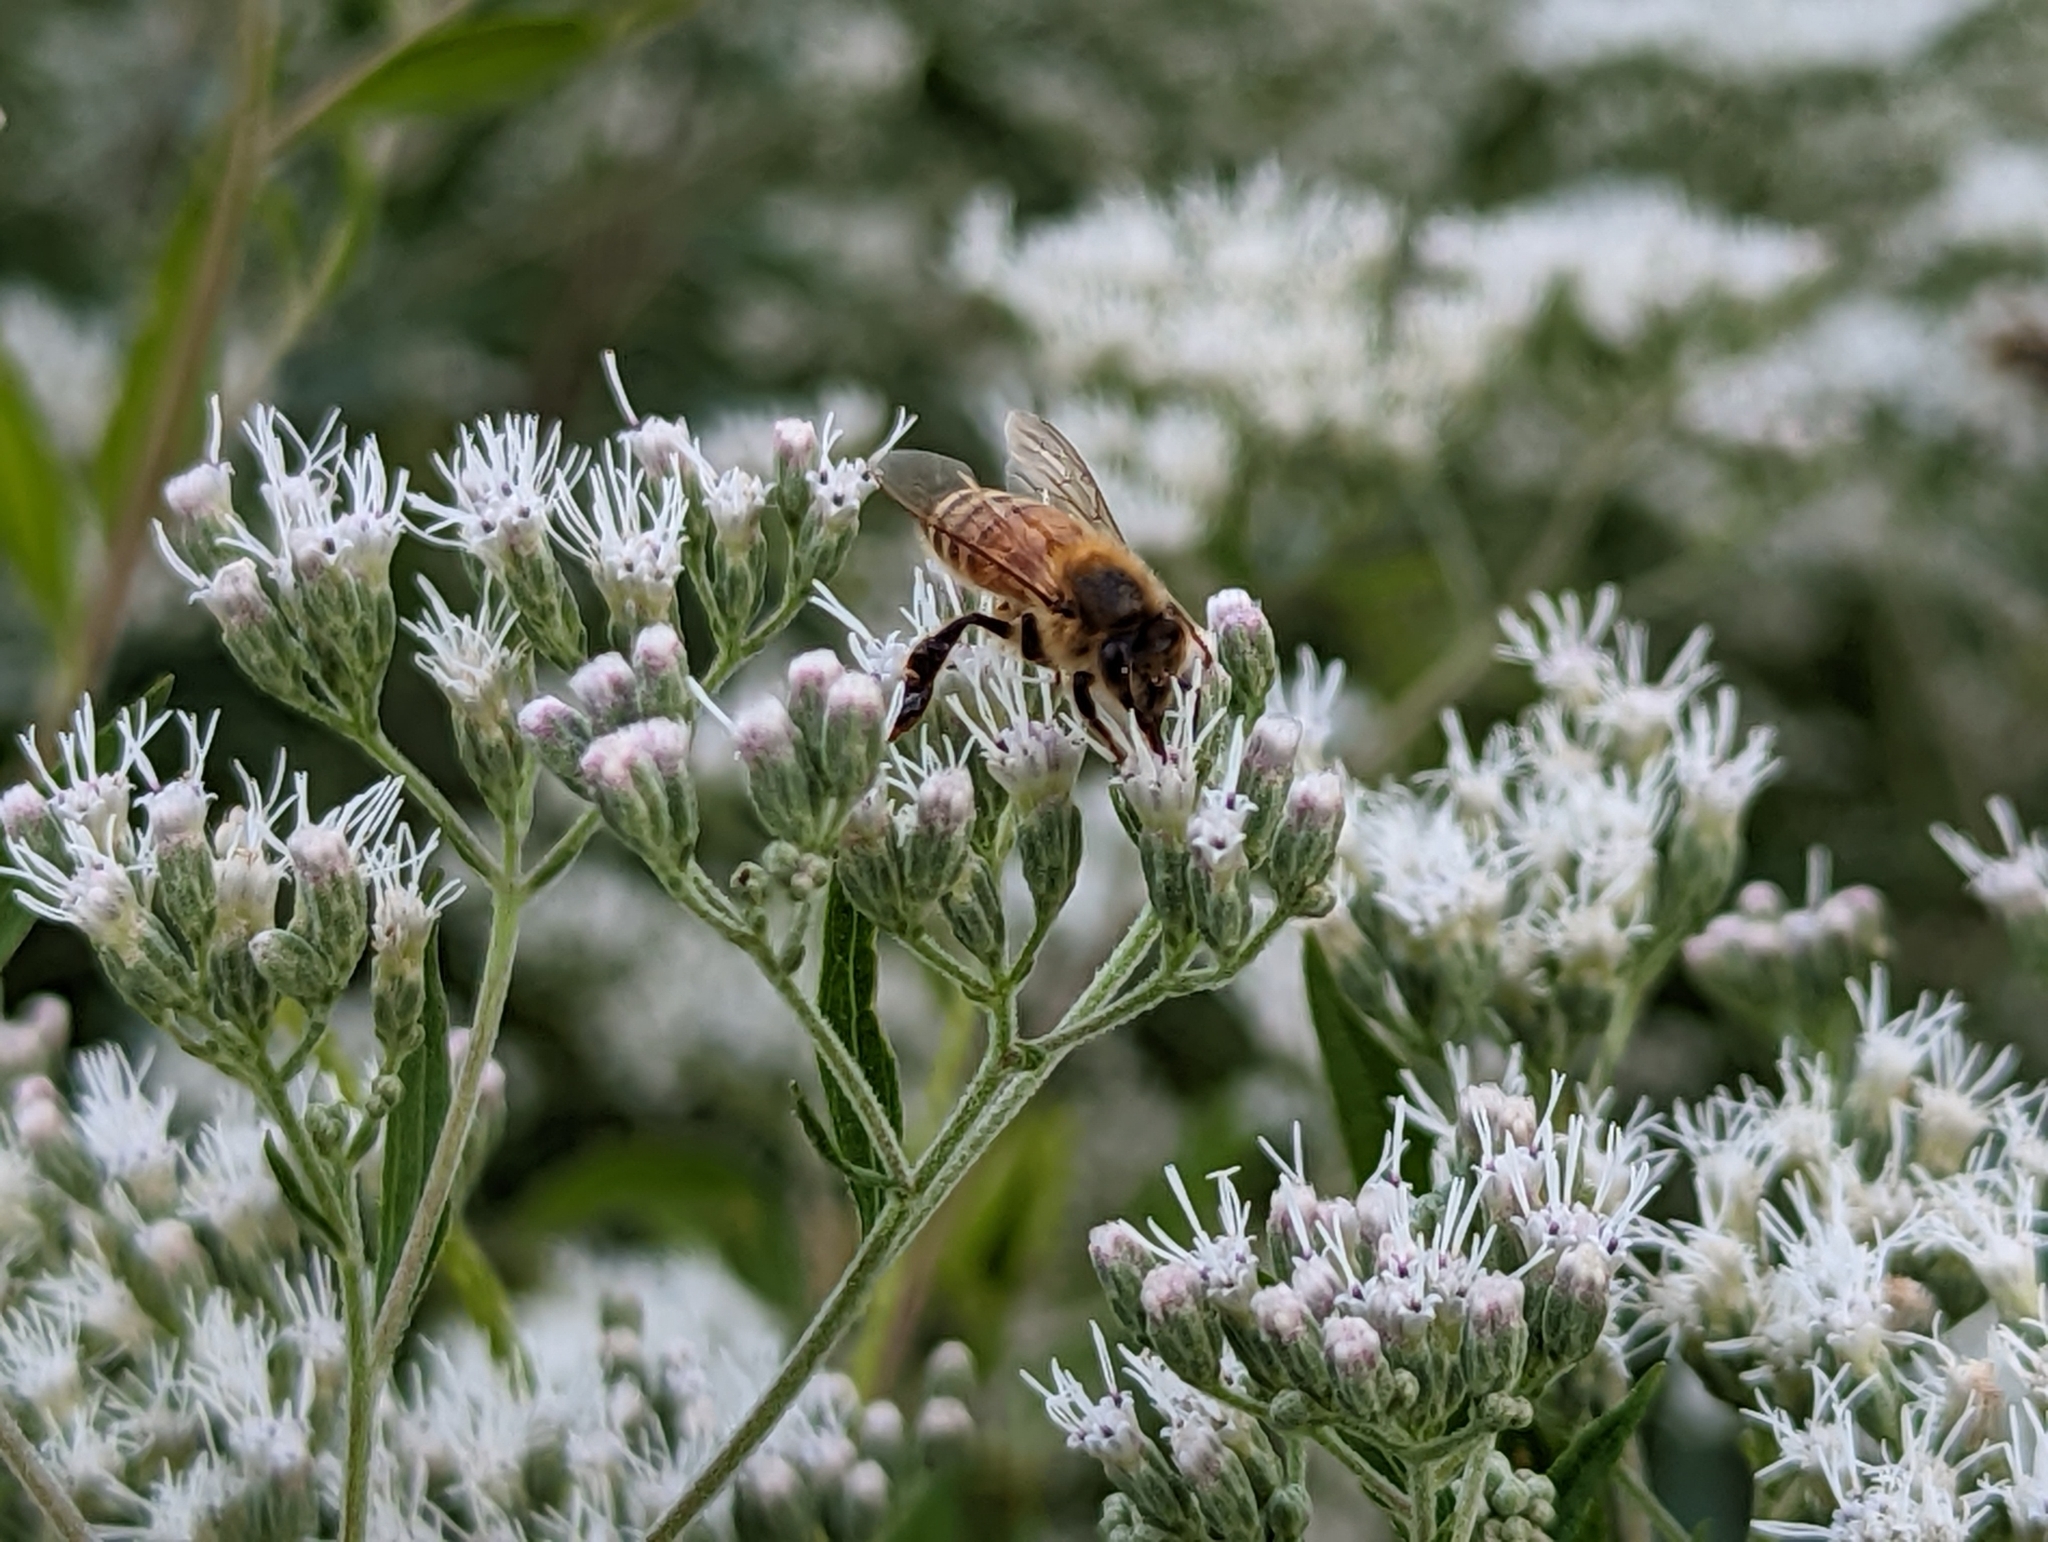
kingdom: Animalia
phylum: Arthropoda
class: Insecta
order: Hymenoptera
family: Apidae
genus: Apis
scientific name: Apis mellifera
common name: Honey bee
